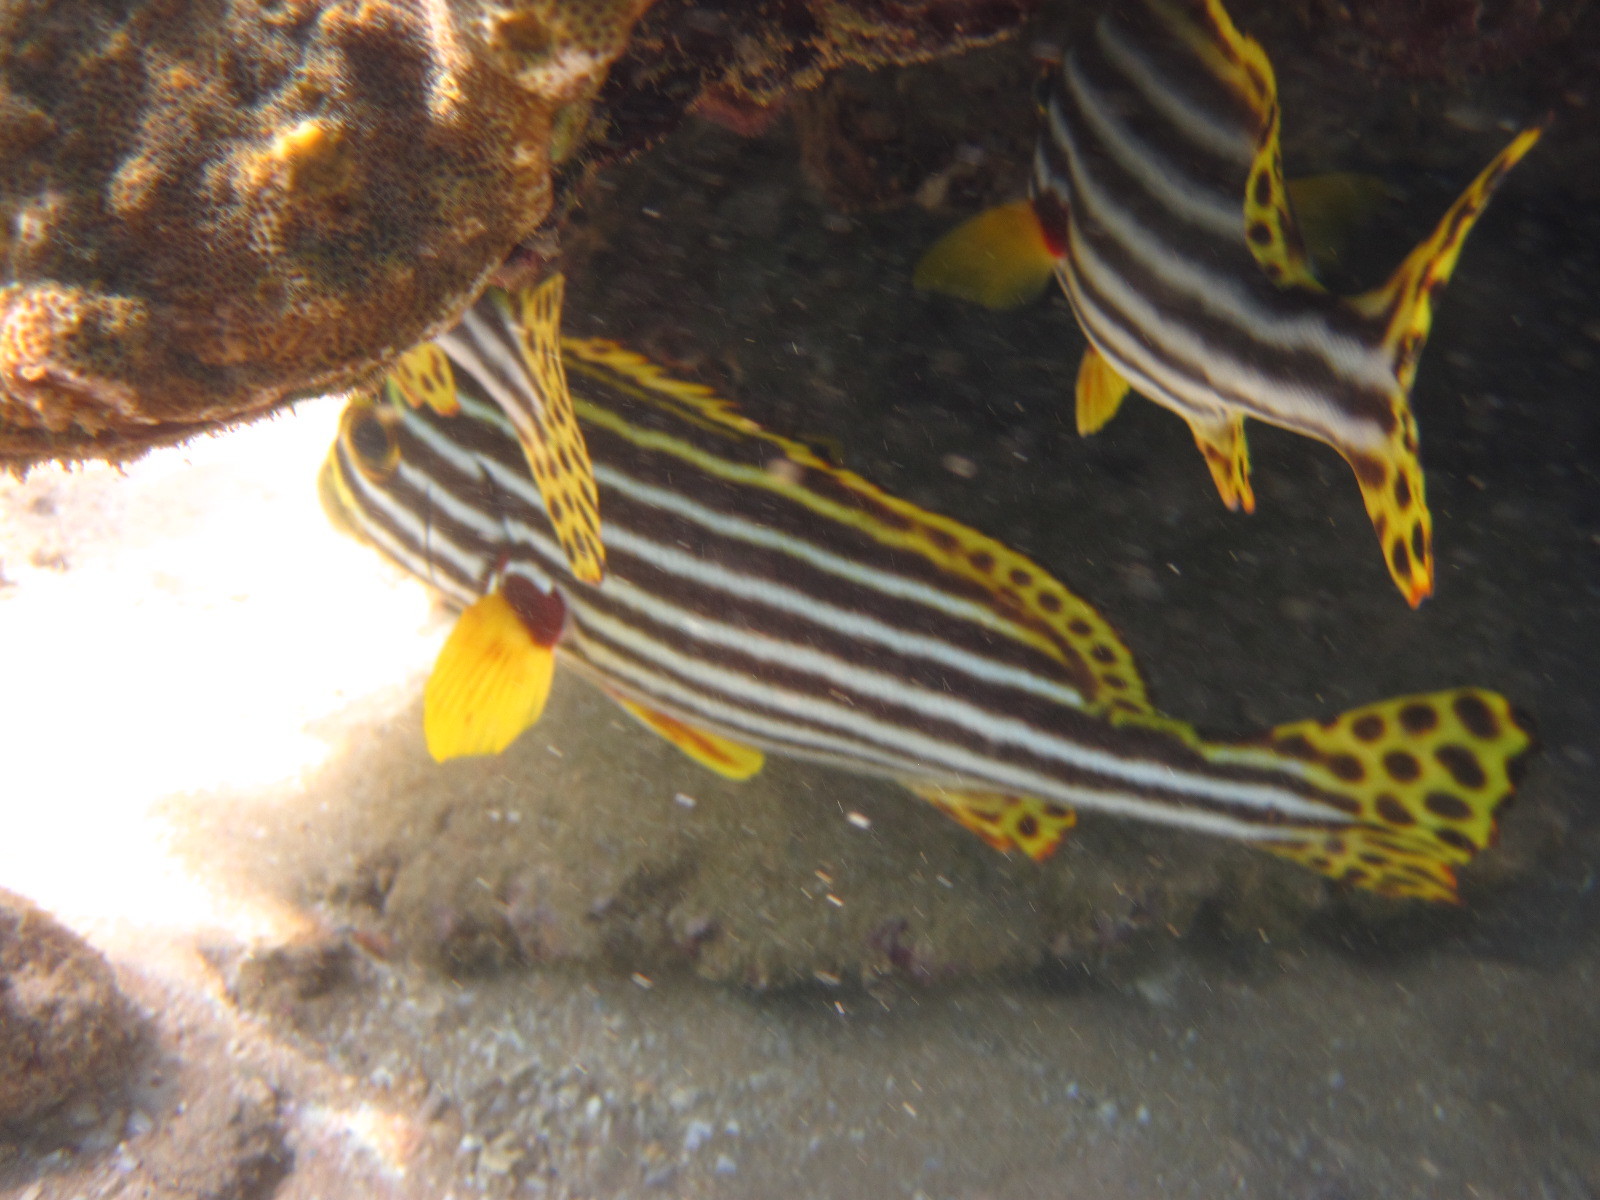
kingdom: Animalia
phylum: Chordata
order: Perciformes
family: Haemulidae
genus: Plectorhinchus
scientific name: Plectorhinchus vittatus
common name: Oriental sweetlips
